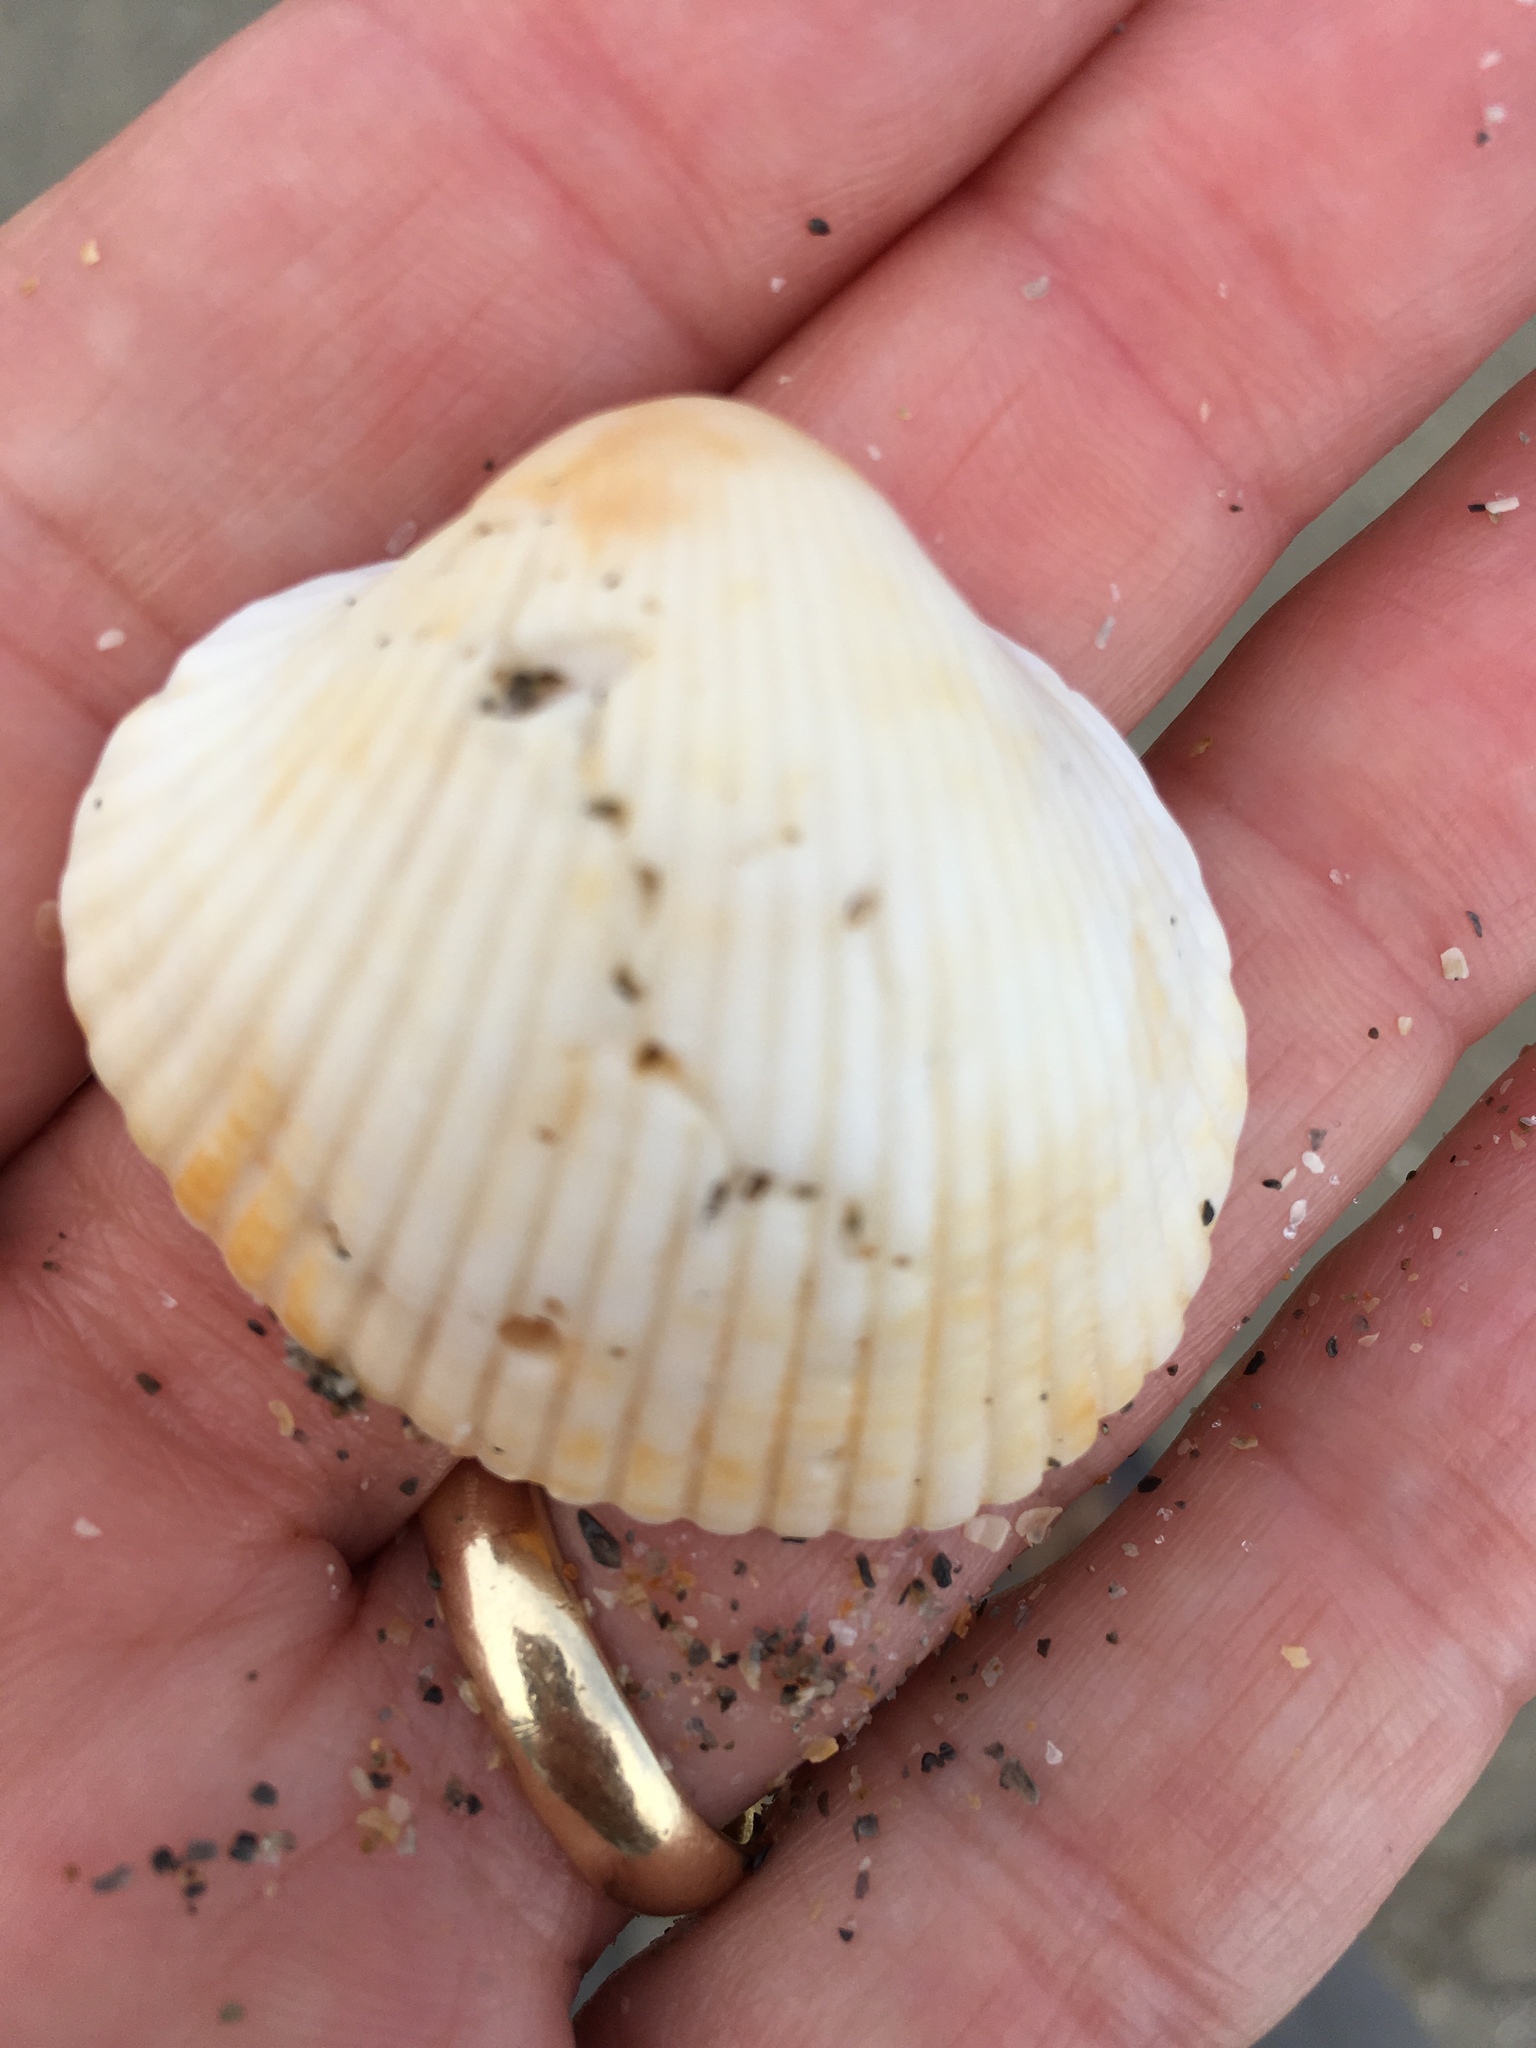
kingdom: Animalia
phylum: Mollusca
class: Bivalvia
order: Arcida
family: Arcidae
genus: Lunarca
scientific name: Lunarca ovalis
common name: Blood ark
